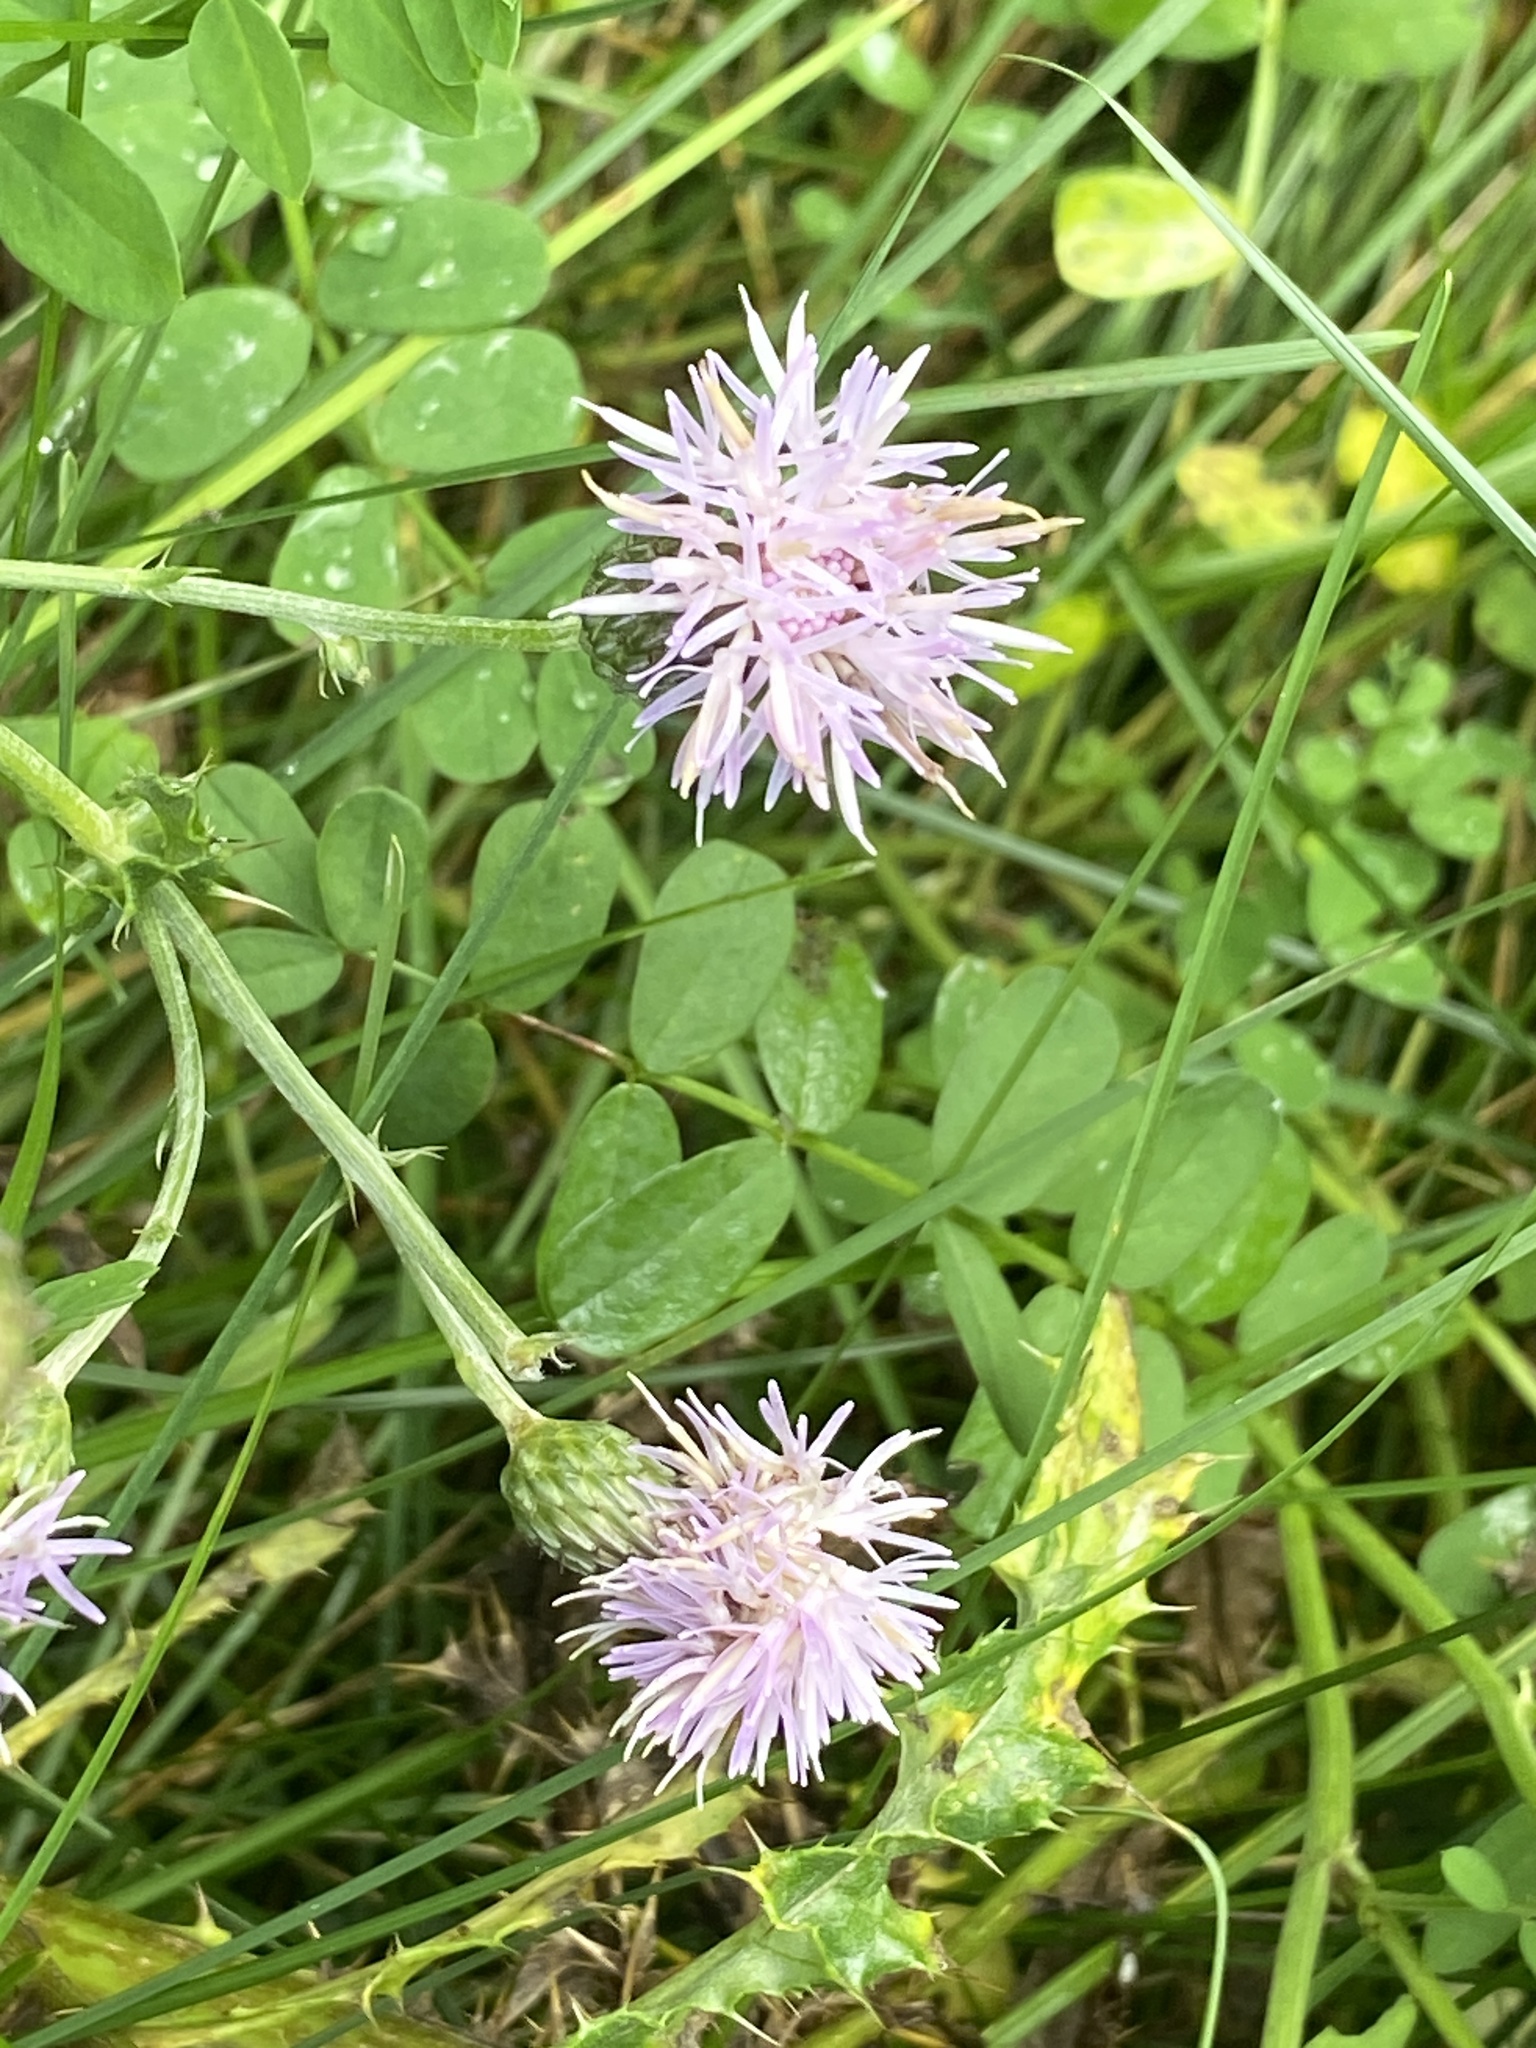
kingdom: Plantae
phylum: Tracheophyta
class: Magnoliopsida
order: Asterales
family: Asteraceae
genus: Cirsium
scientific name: Cirsium arvense
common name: Creeping thistle
